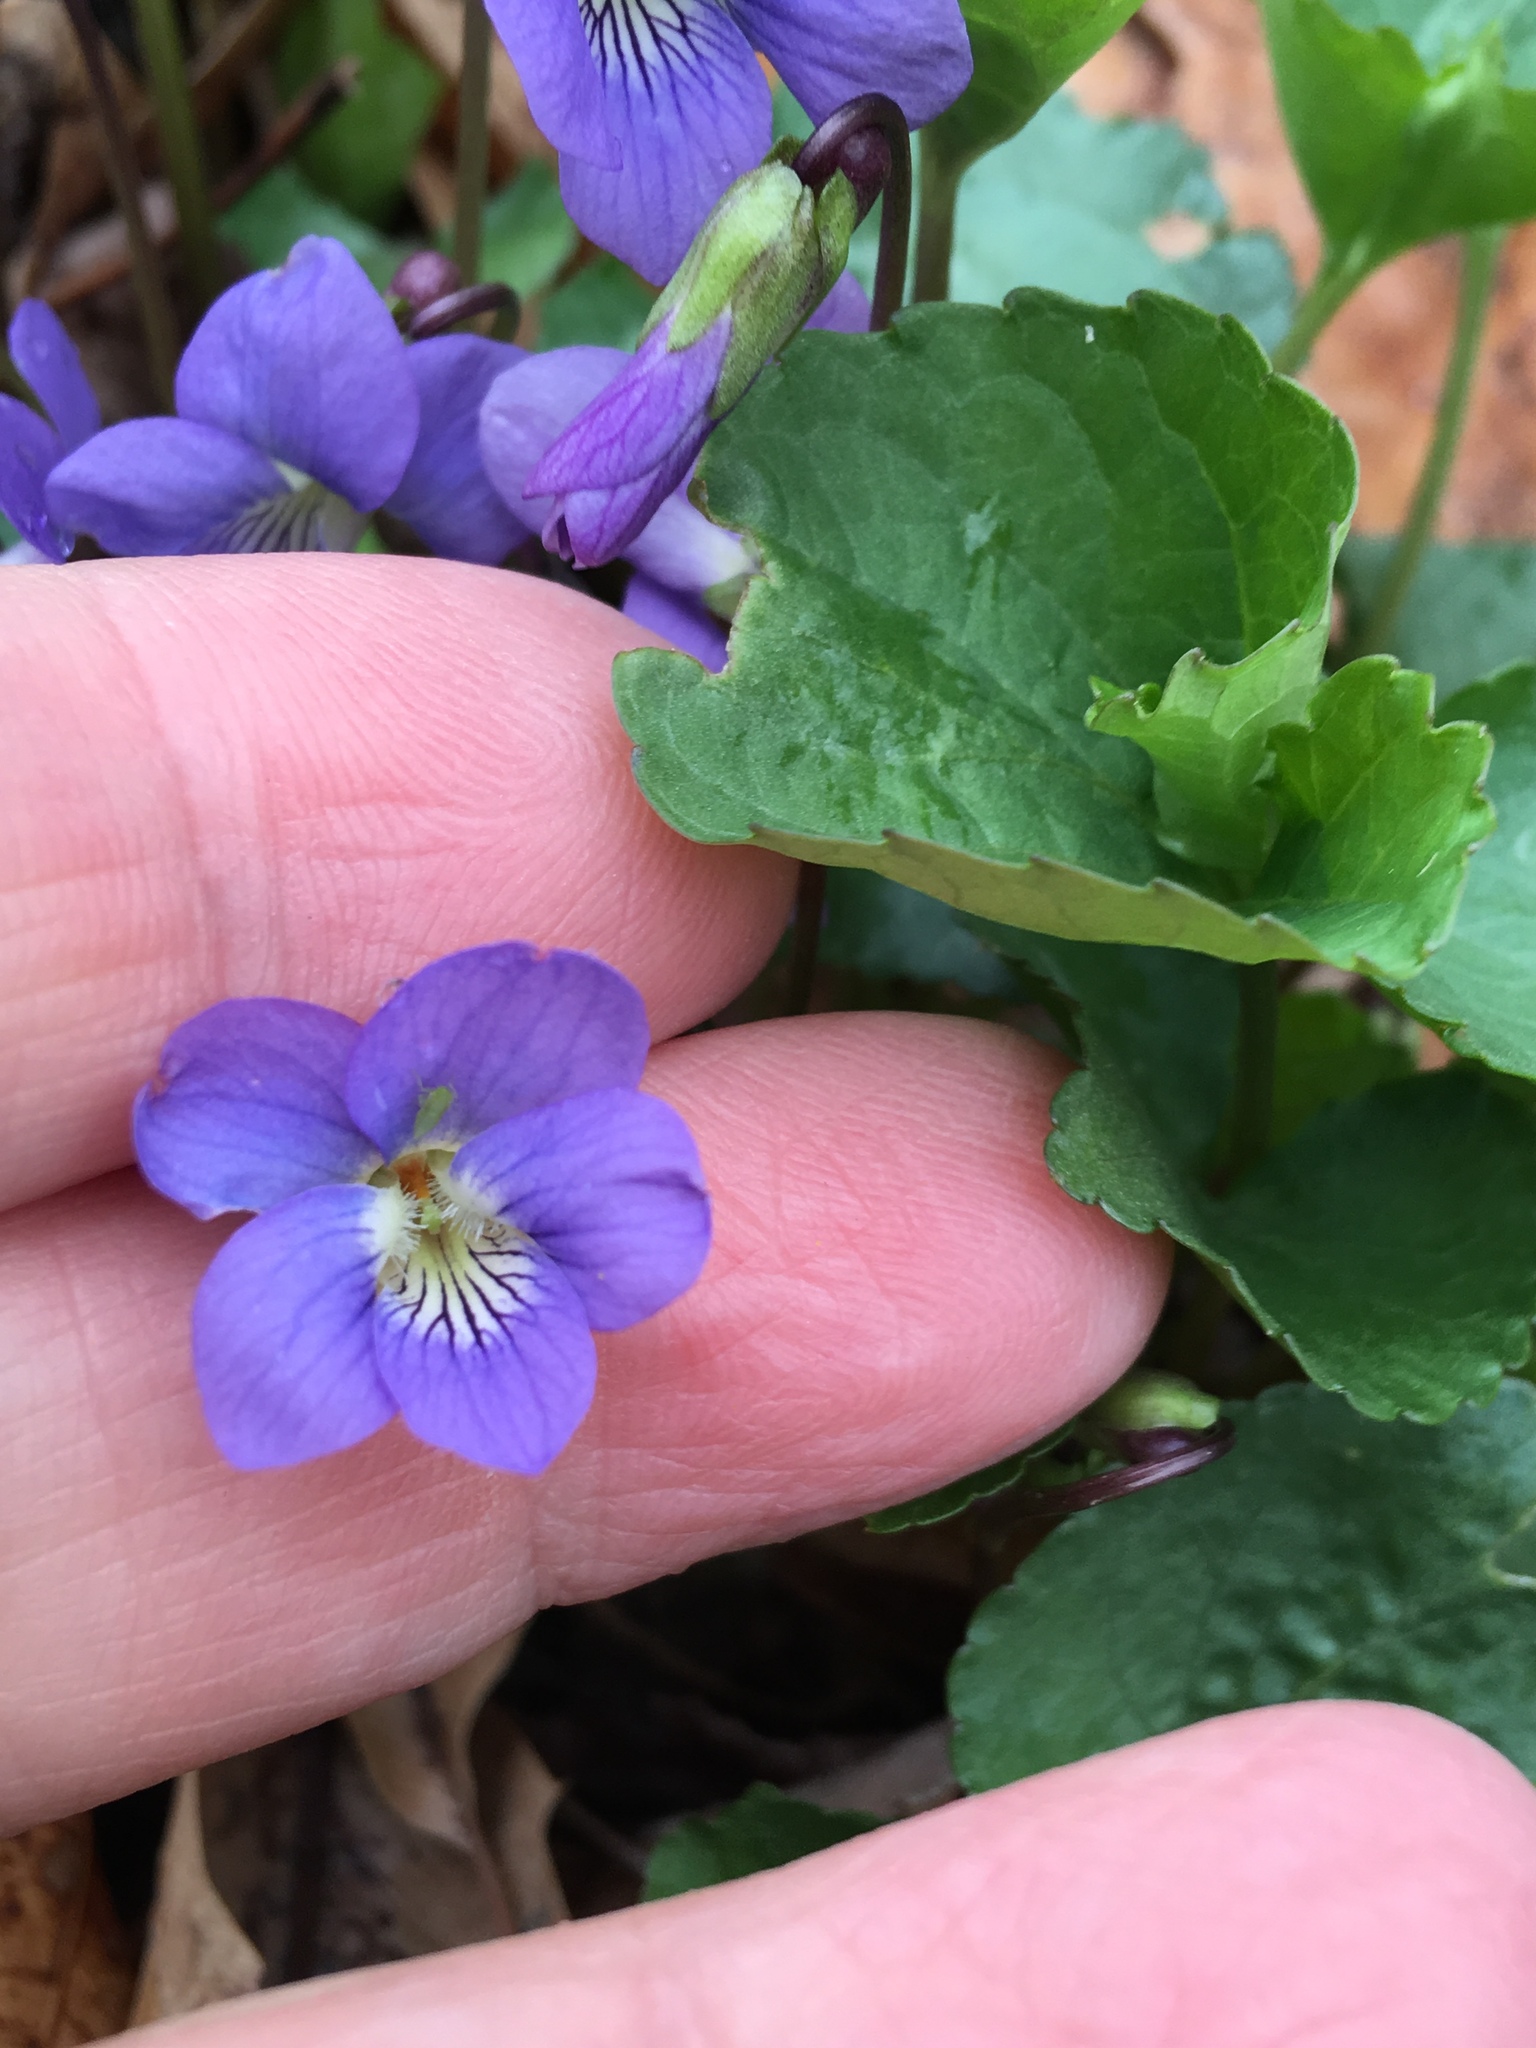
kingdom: Plantae
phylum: Tracheophyta
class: Magnoliopsida
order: Malpighiales
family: Violaceae
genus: Viola
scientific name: Viola sororia
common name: Dooryard violet
